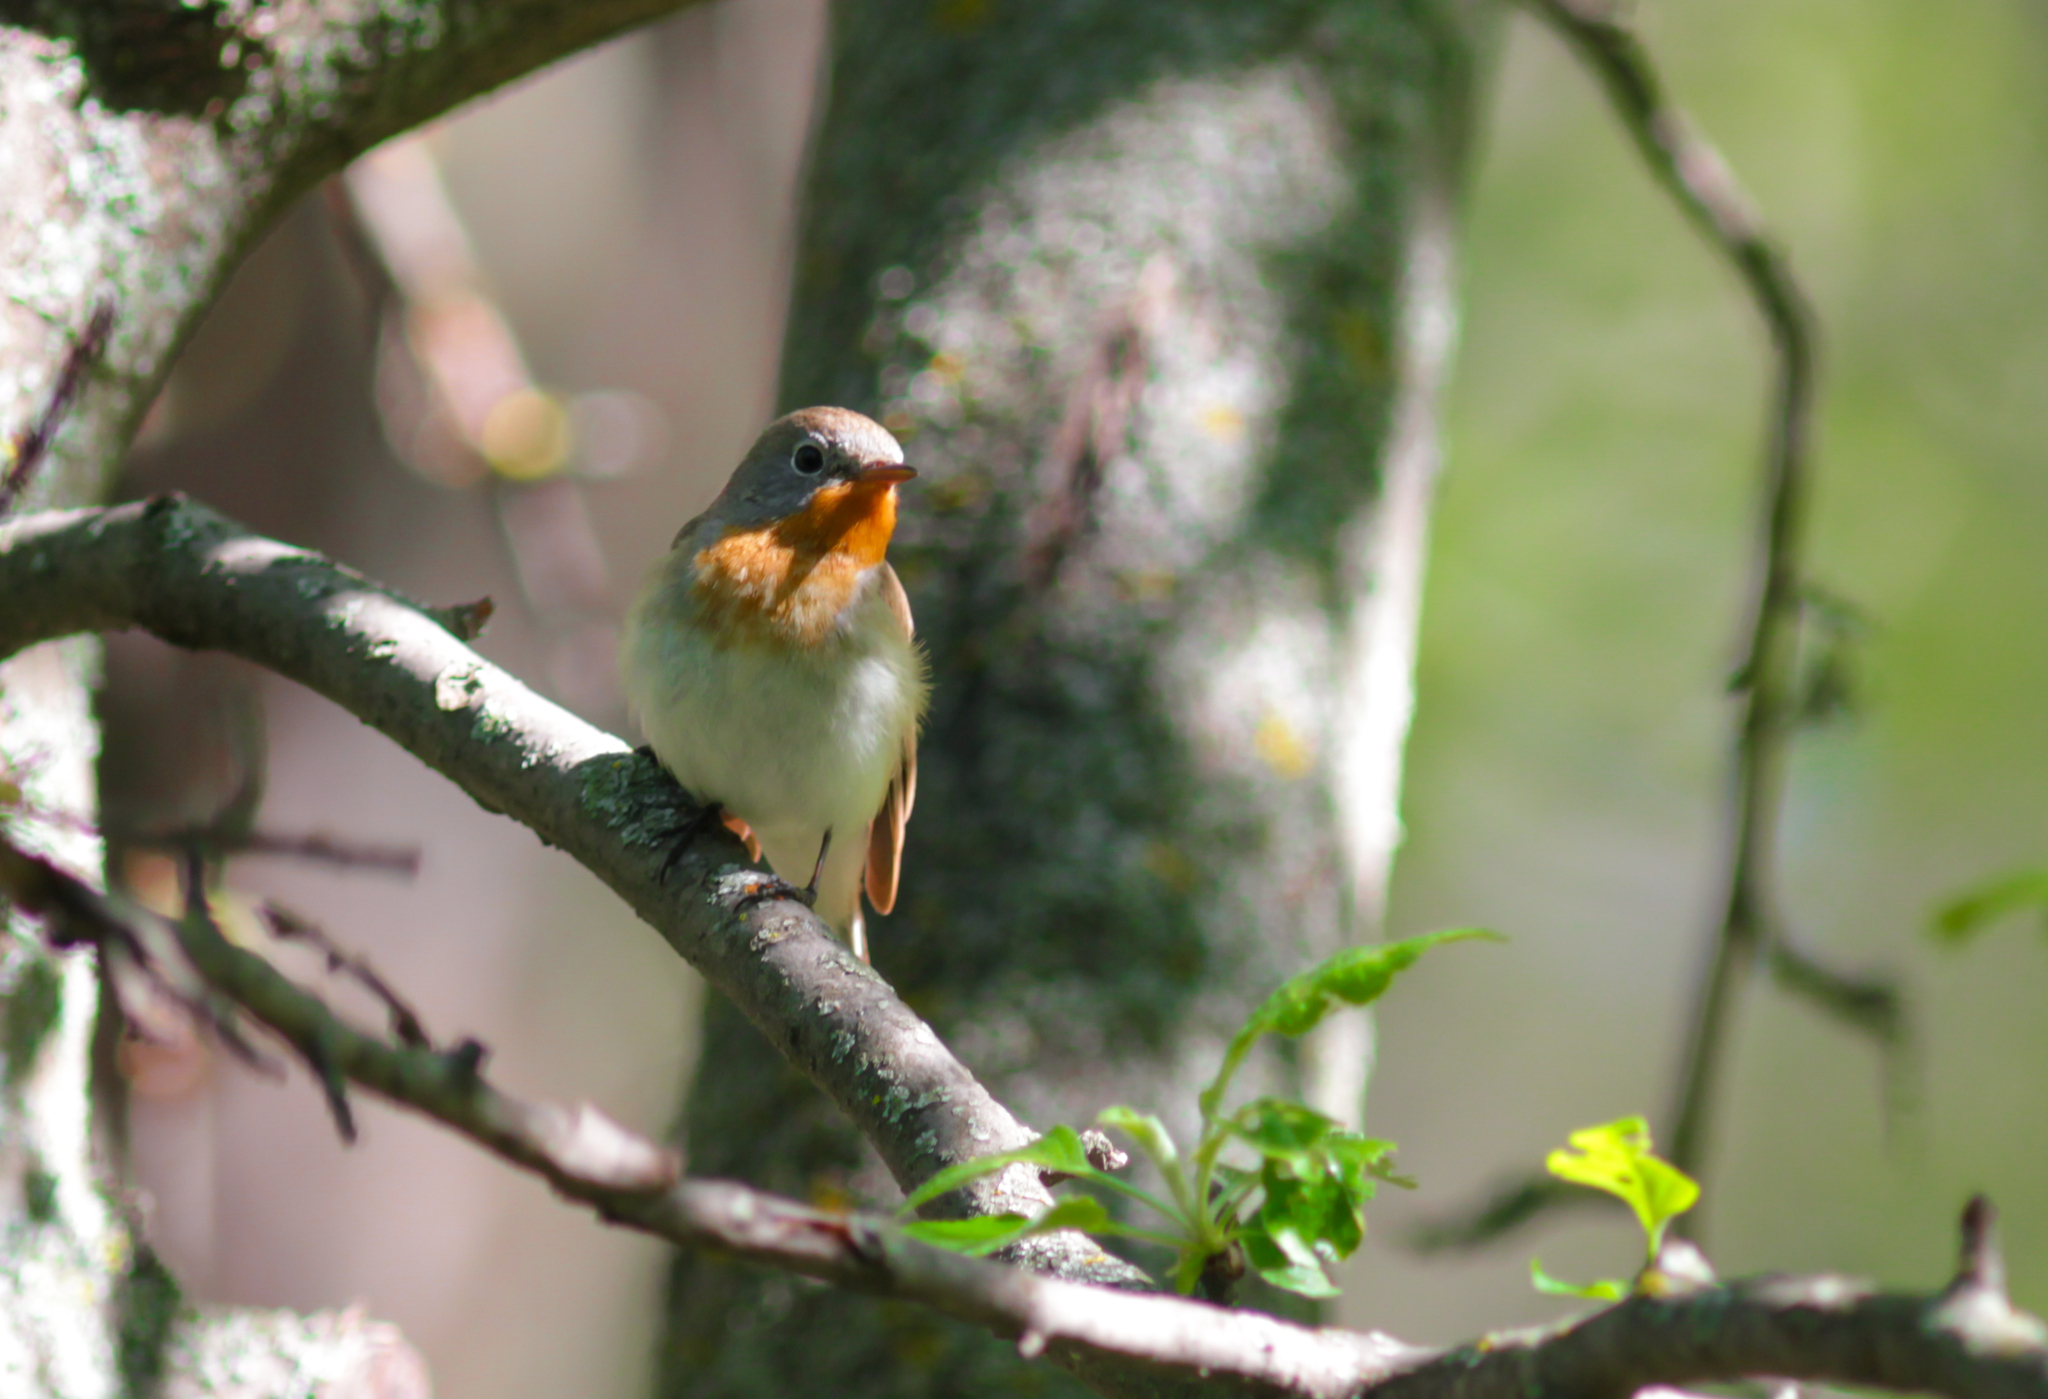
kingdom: Animalia
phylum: Chordata
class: Aves
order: Passeriformes
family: Muscicapidae
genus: Ficedula
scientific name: Ficedula parva
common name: Red-breasted flycatcher
